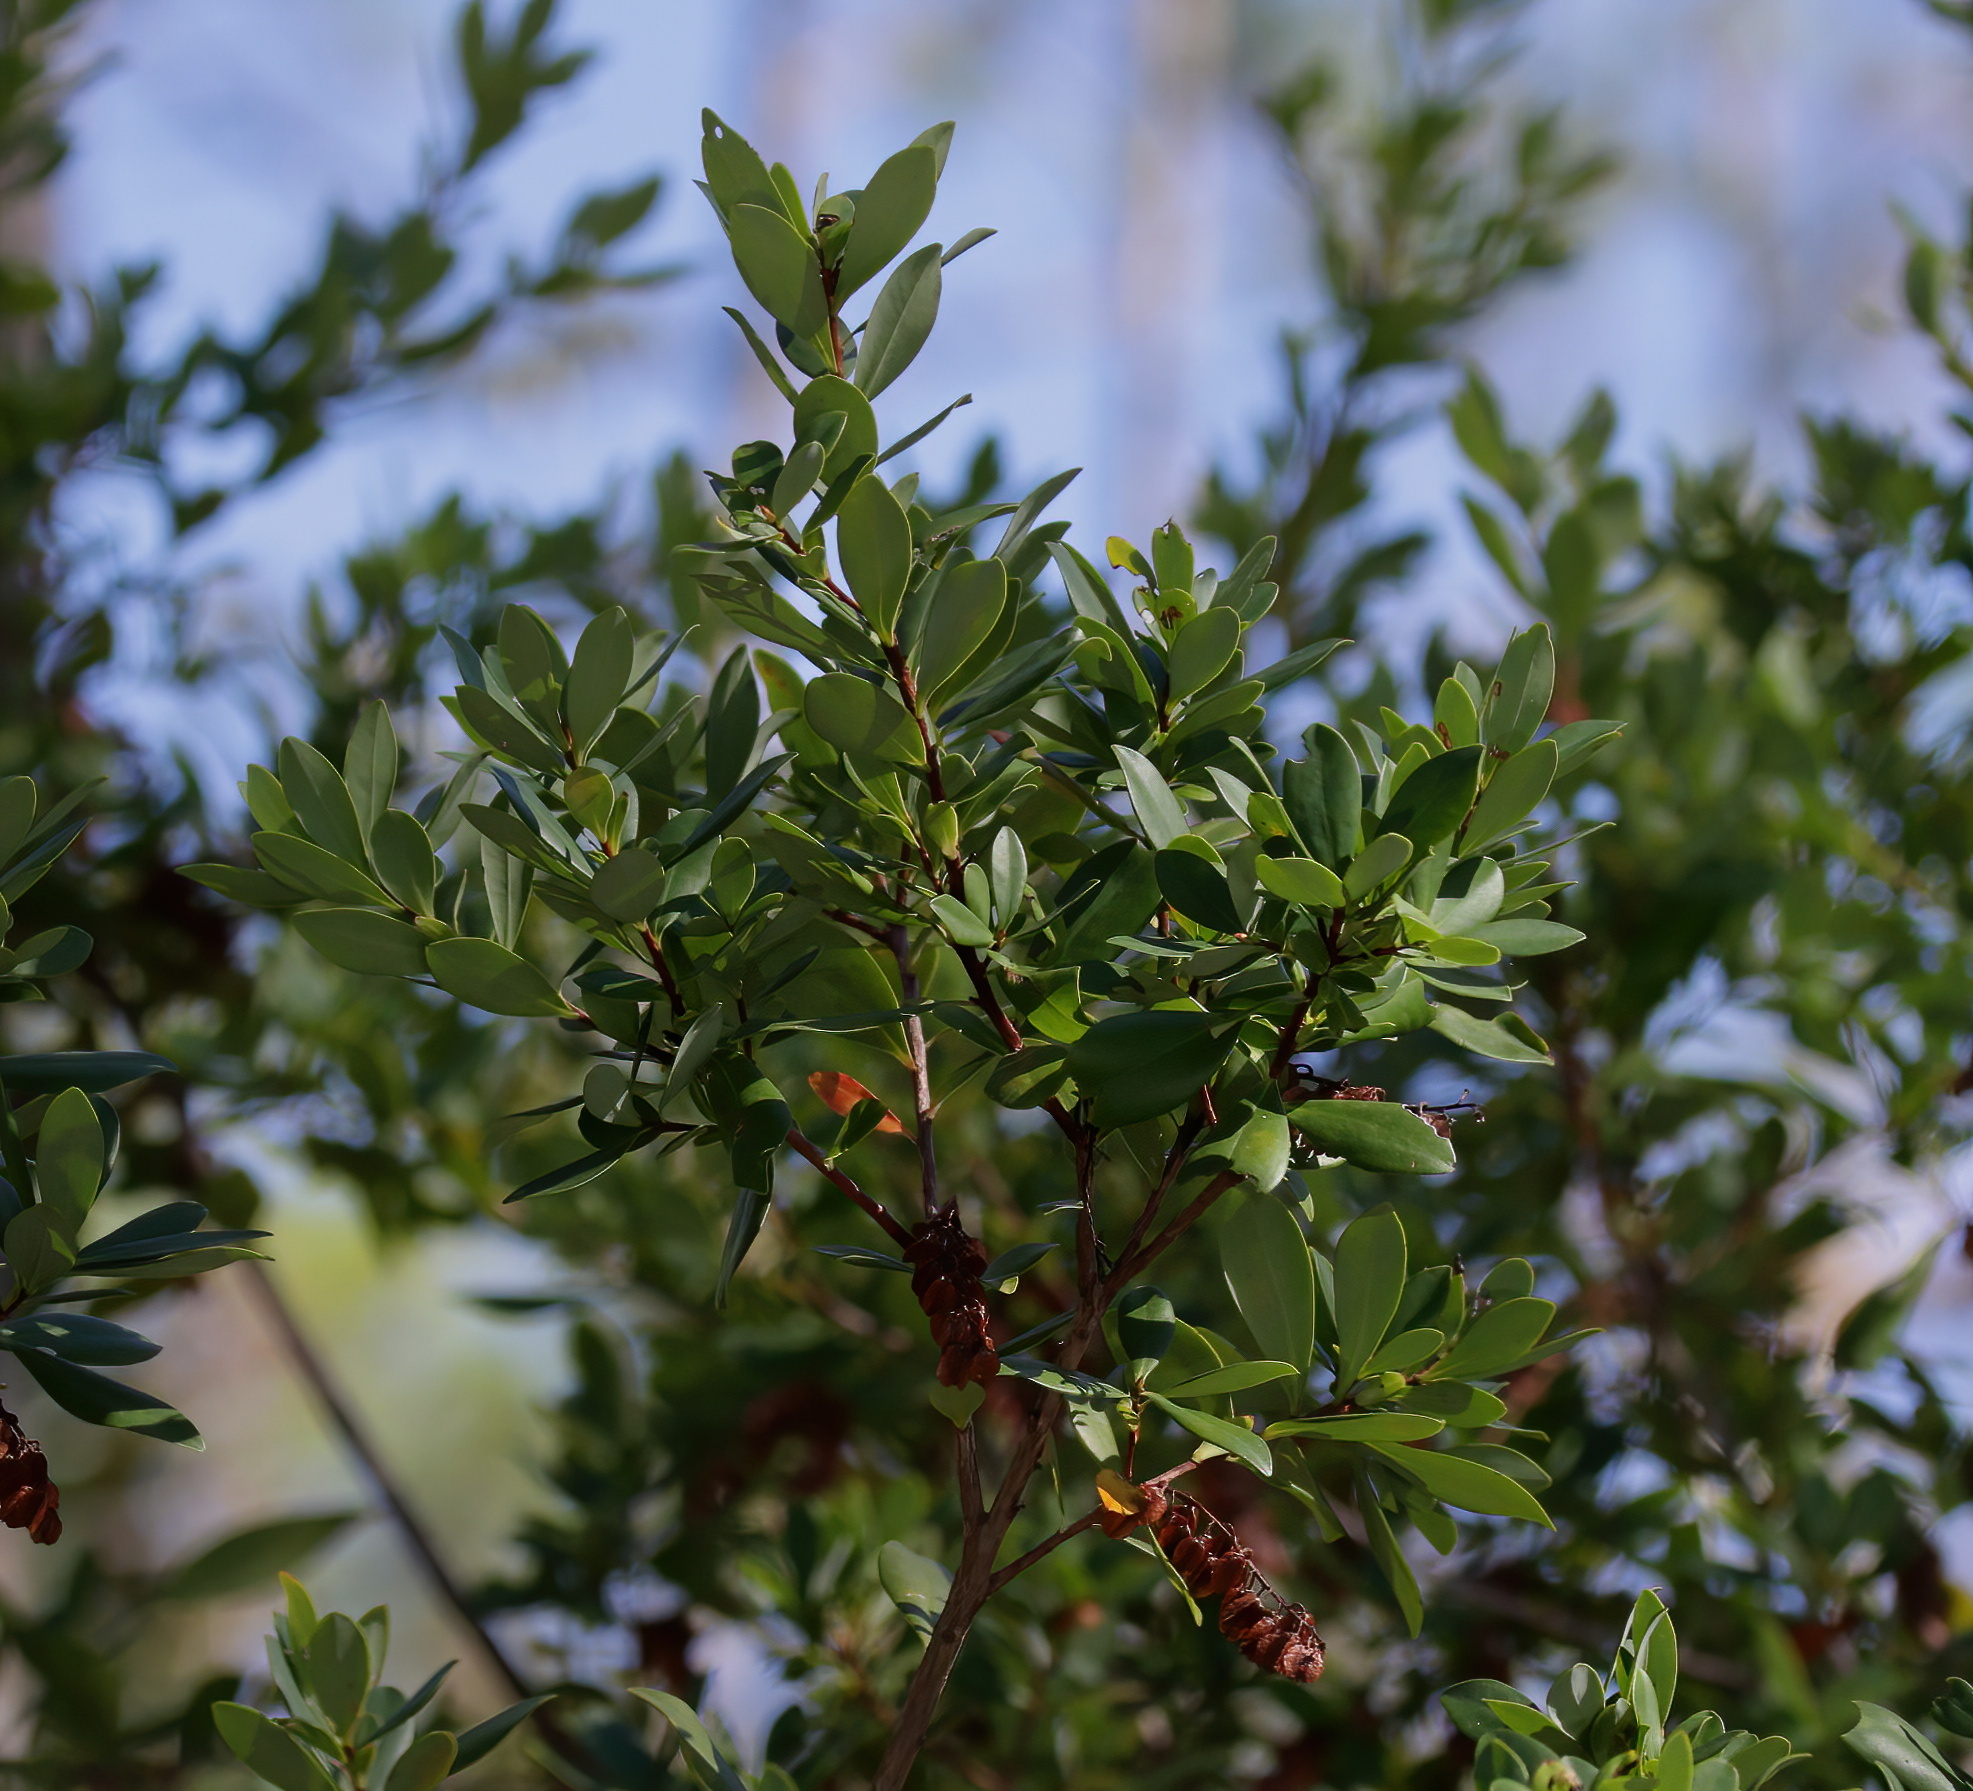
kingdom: Plantae
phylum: Tracheophyta
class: Magnoliopsida
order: Ericales
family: Cyrillaceae
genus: Cliftonia
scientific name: Cliftonia monophylla
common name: Titi
